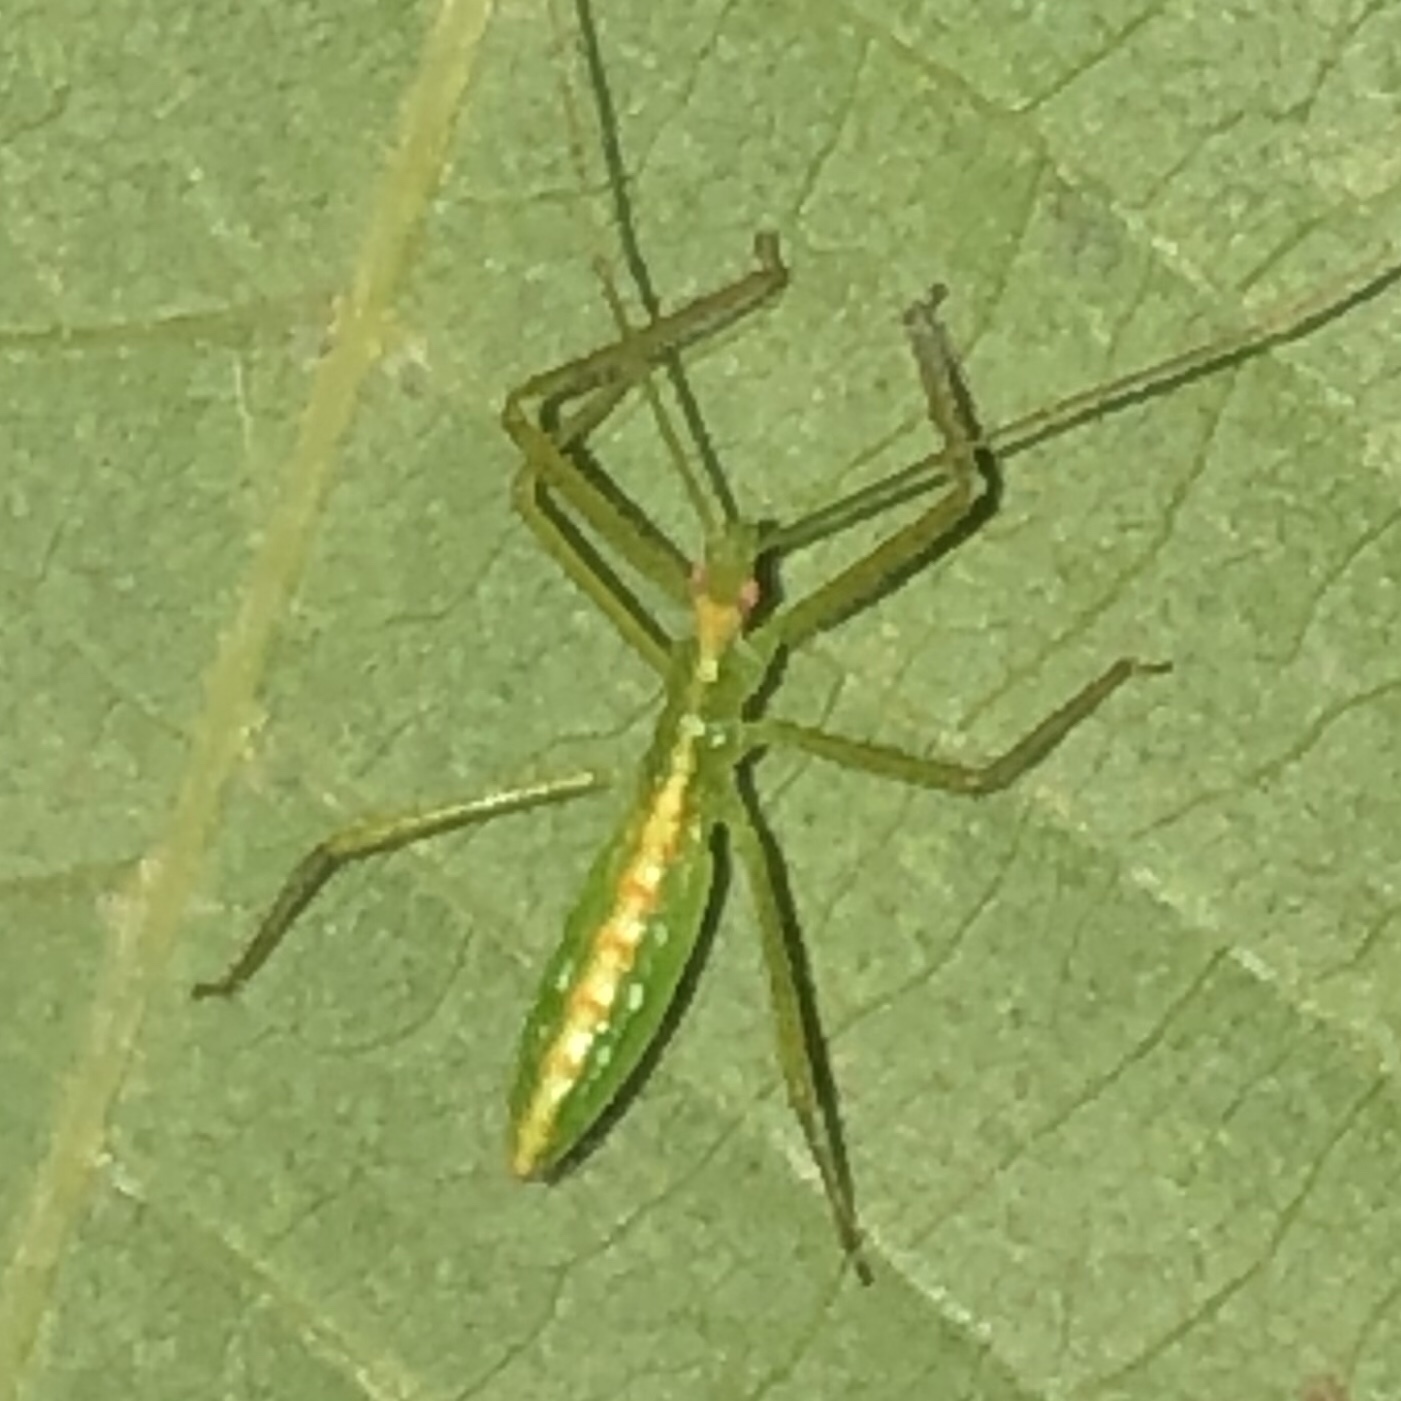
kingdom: Animalia
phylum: Arthropoda
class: Insecta
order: Hemiptera
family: Reduviidae
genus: Zelus
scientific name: Zelus luridus
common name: Pale green assassin bug
